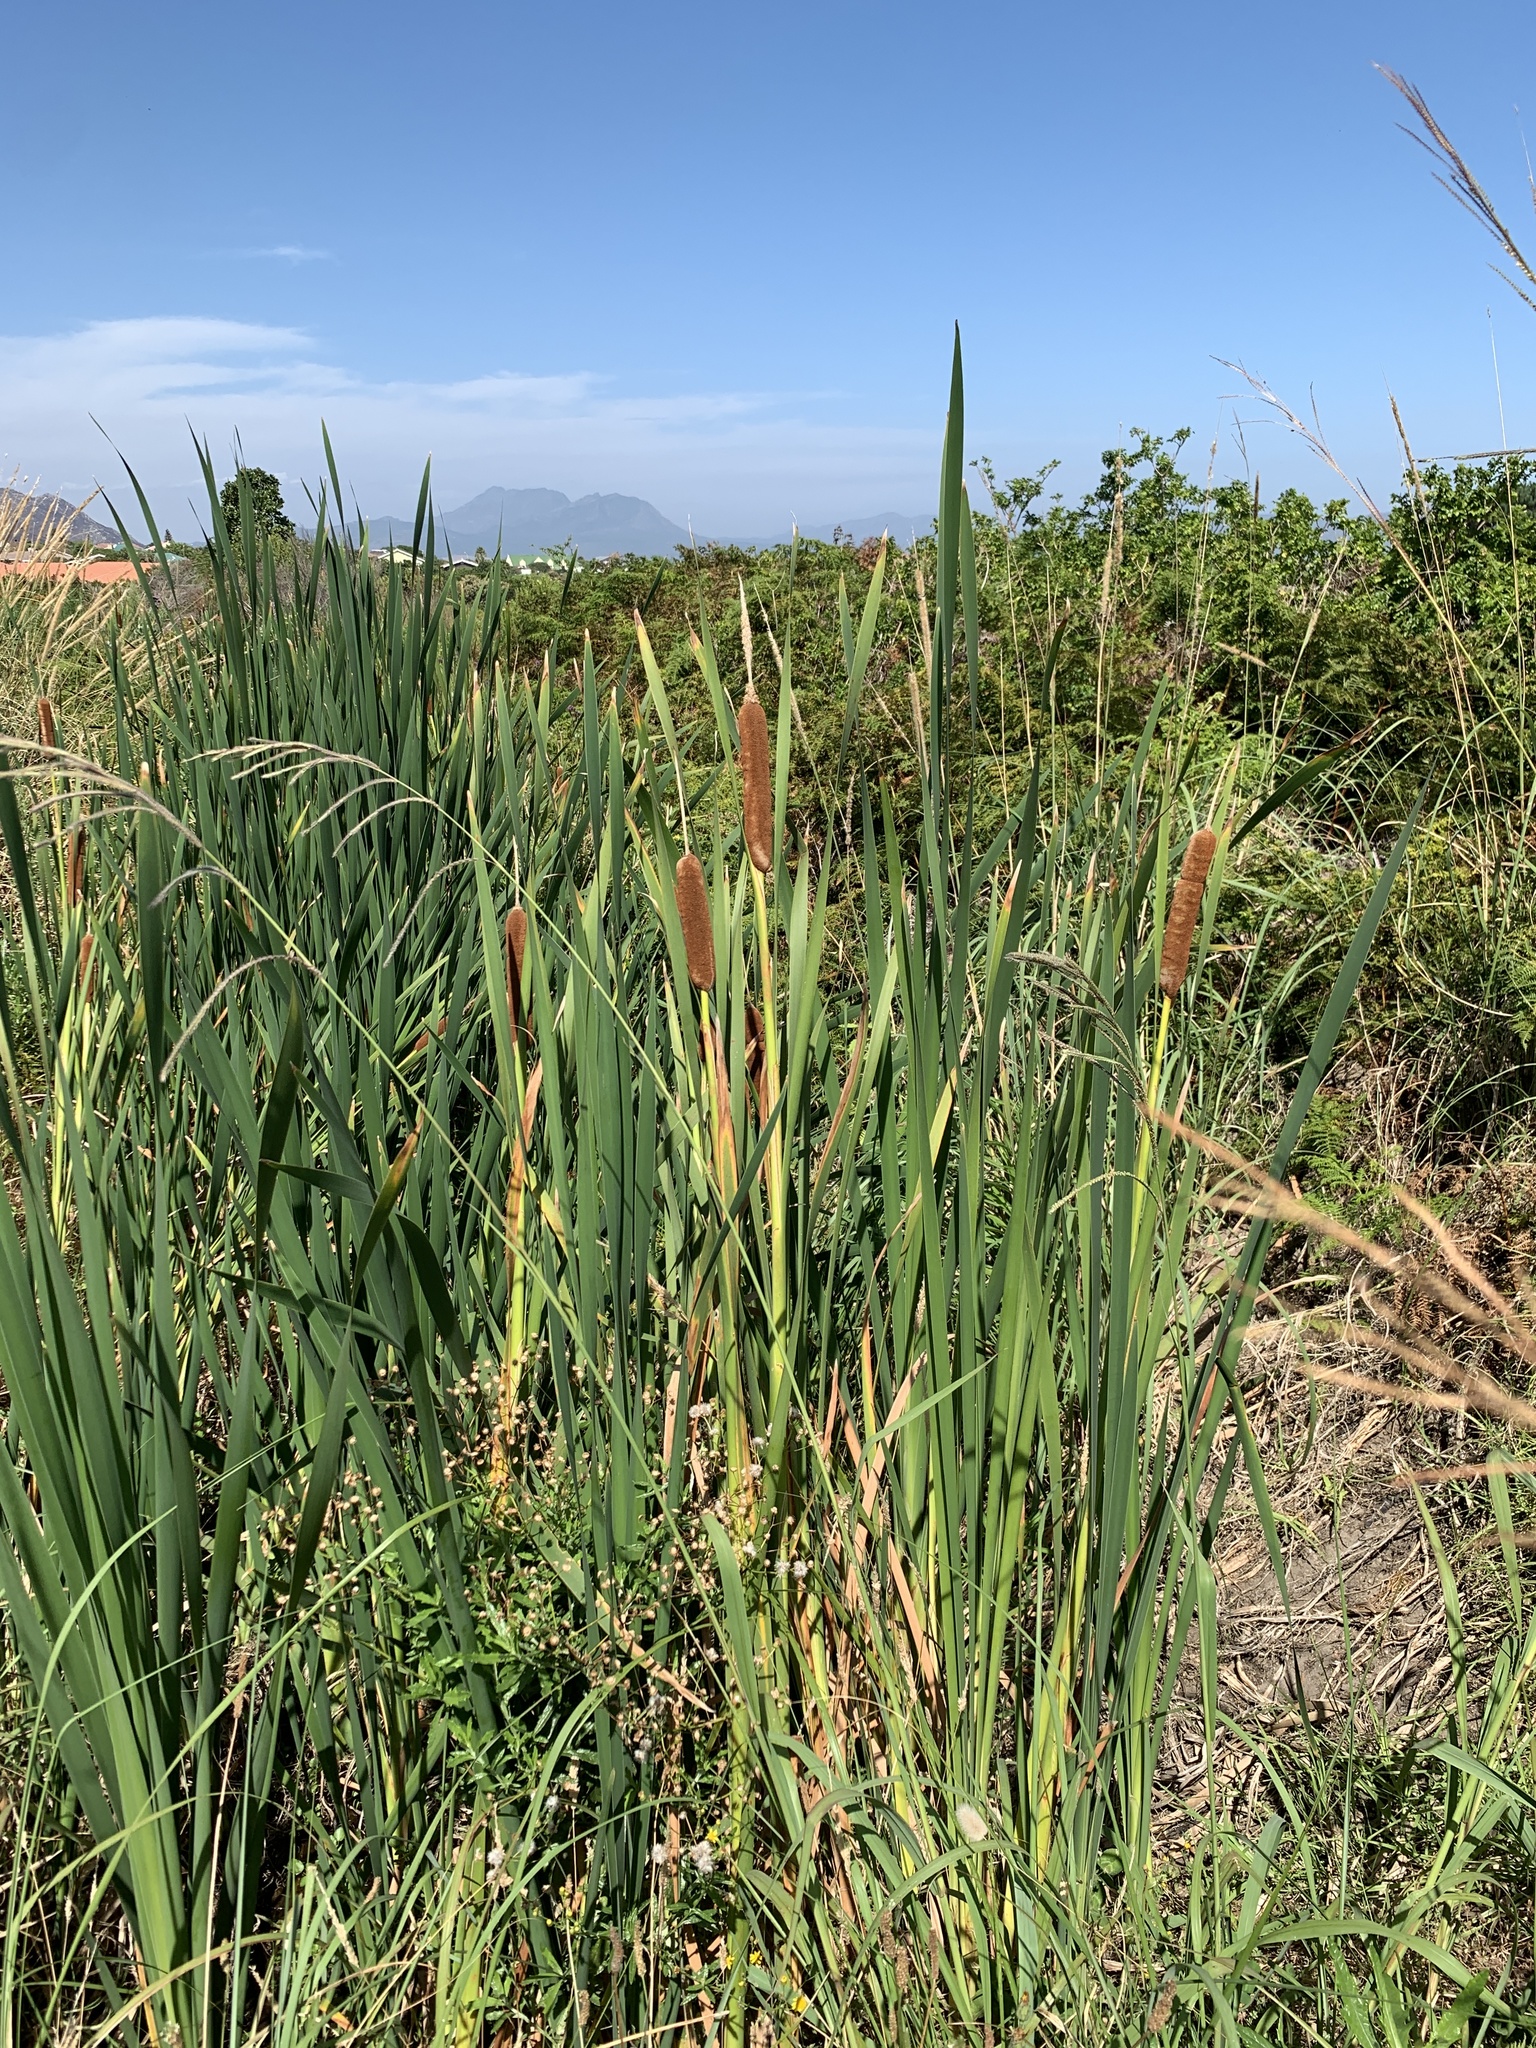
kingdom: Plantae
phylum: Tracheophyta
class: Liliopsida
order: Poales
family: Typhaceae
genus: Typha
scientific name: Typha capensis
